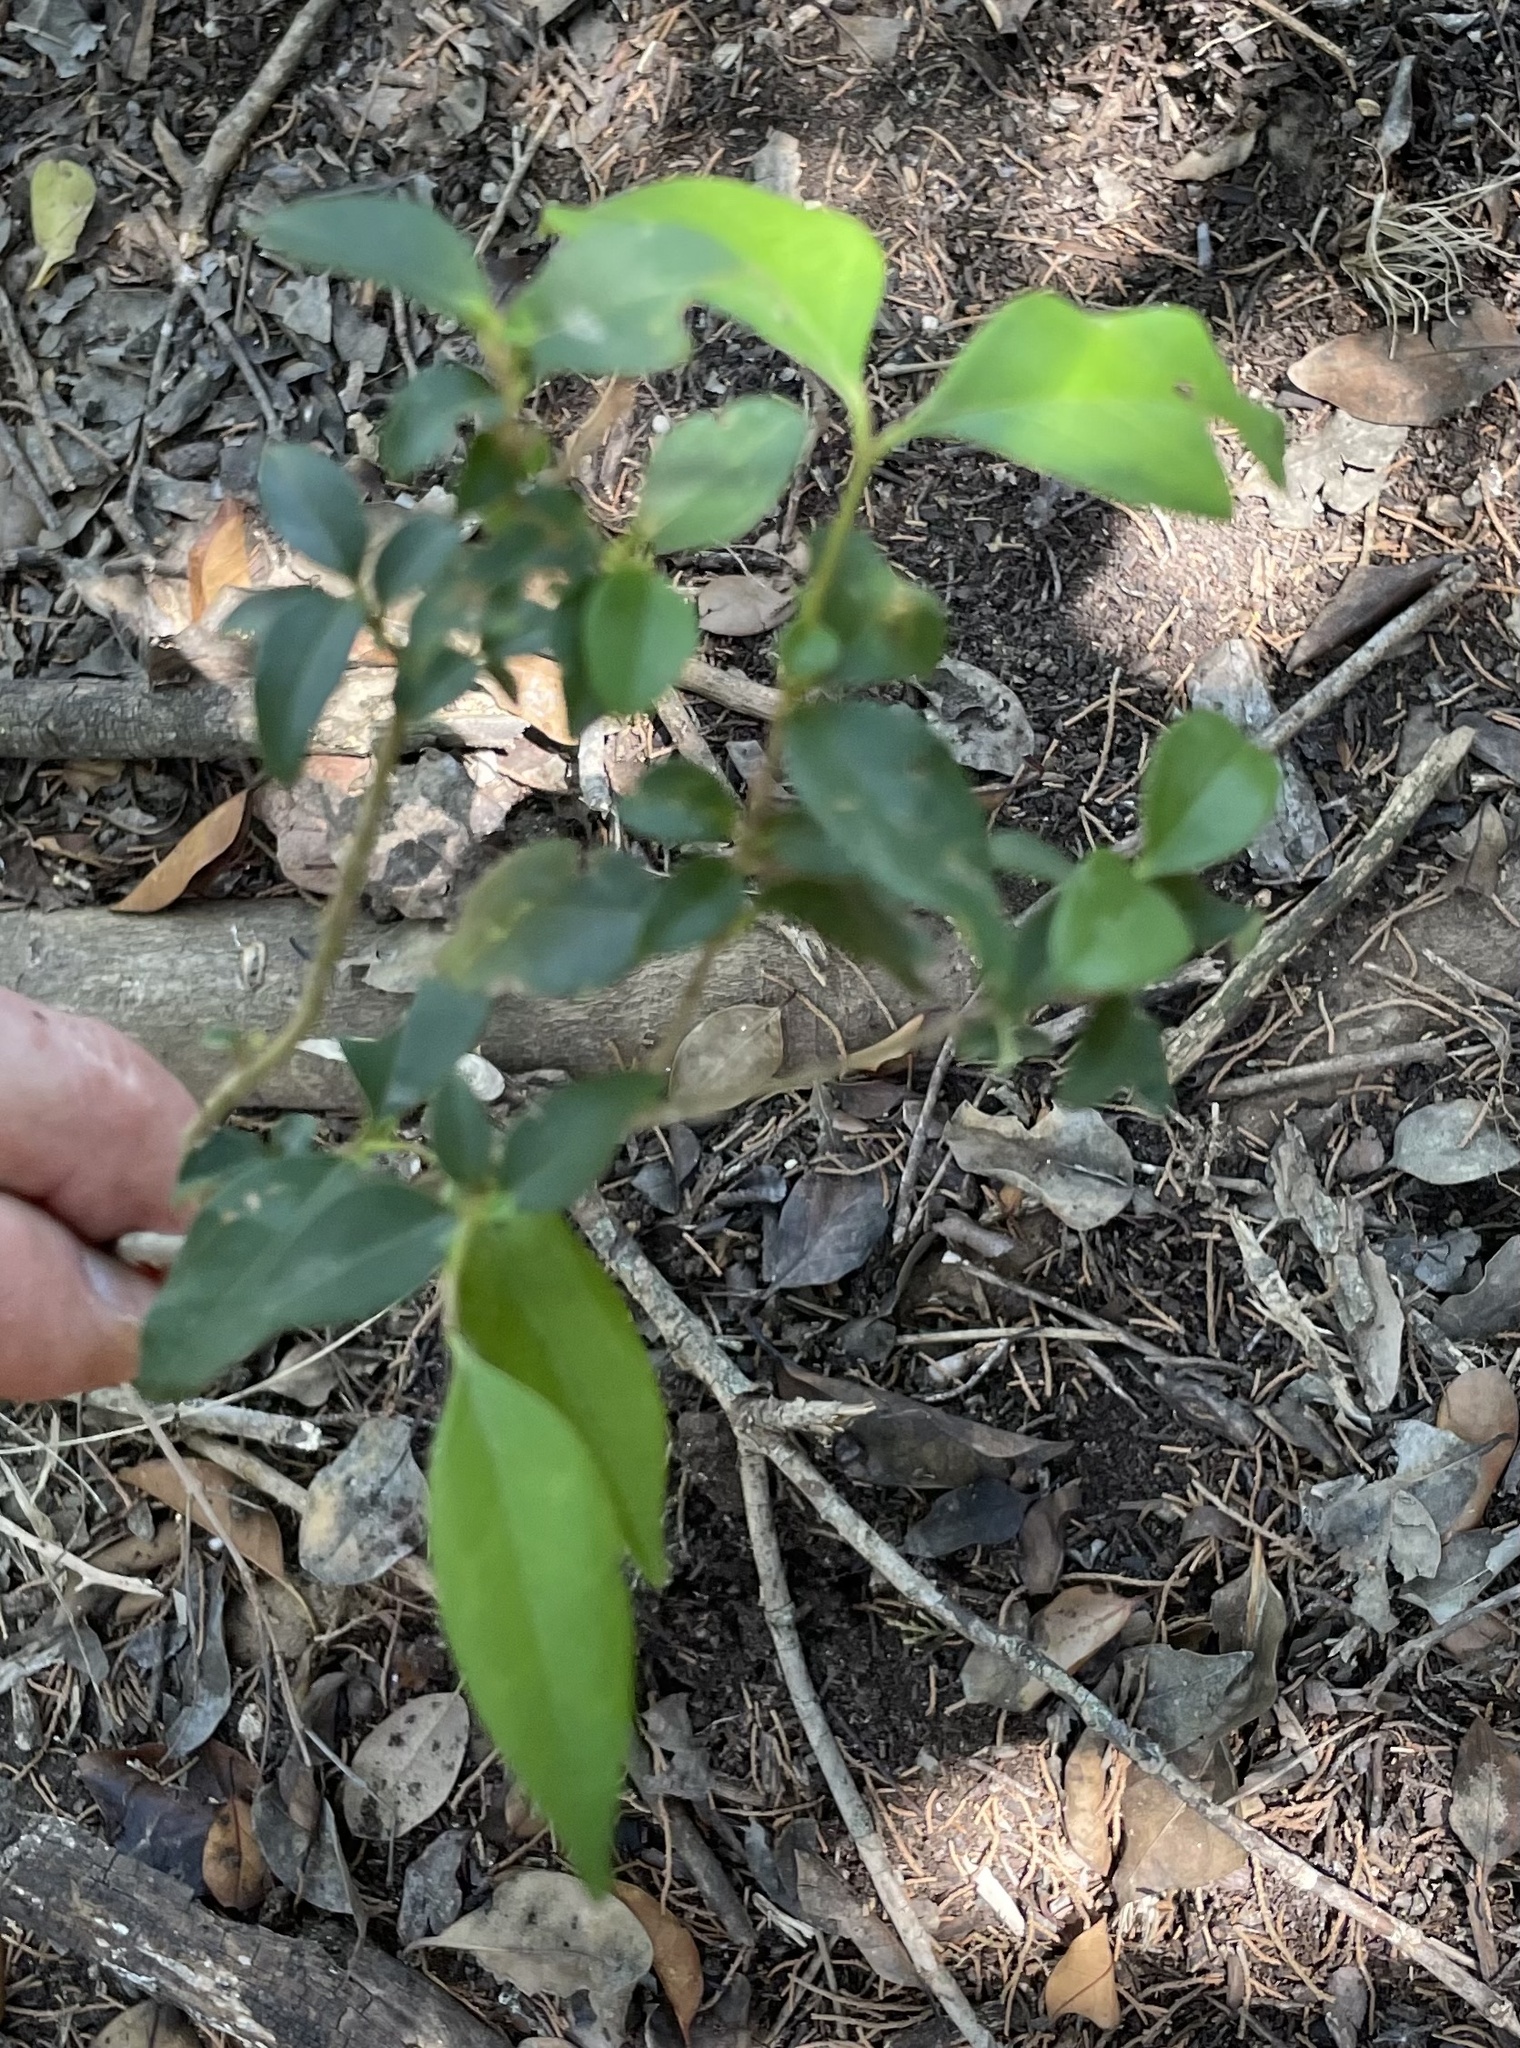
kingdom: Plantae
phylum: Tracheophyta
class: Magnoliopsida
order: Lamiales
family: Oleaceae
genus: Ligustrum
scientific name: Ligustrum lucidum
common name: Glossy privet
